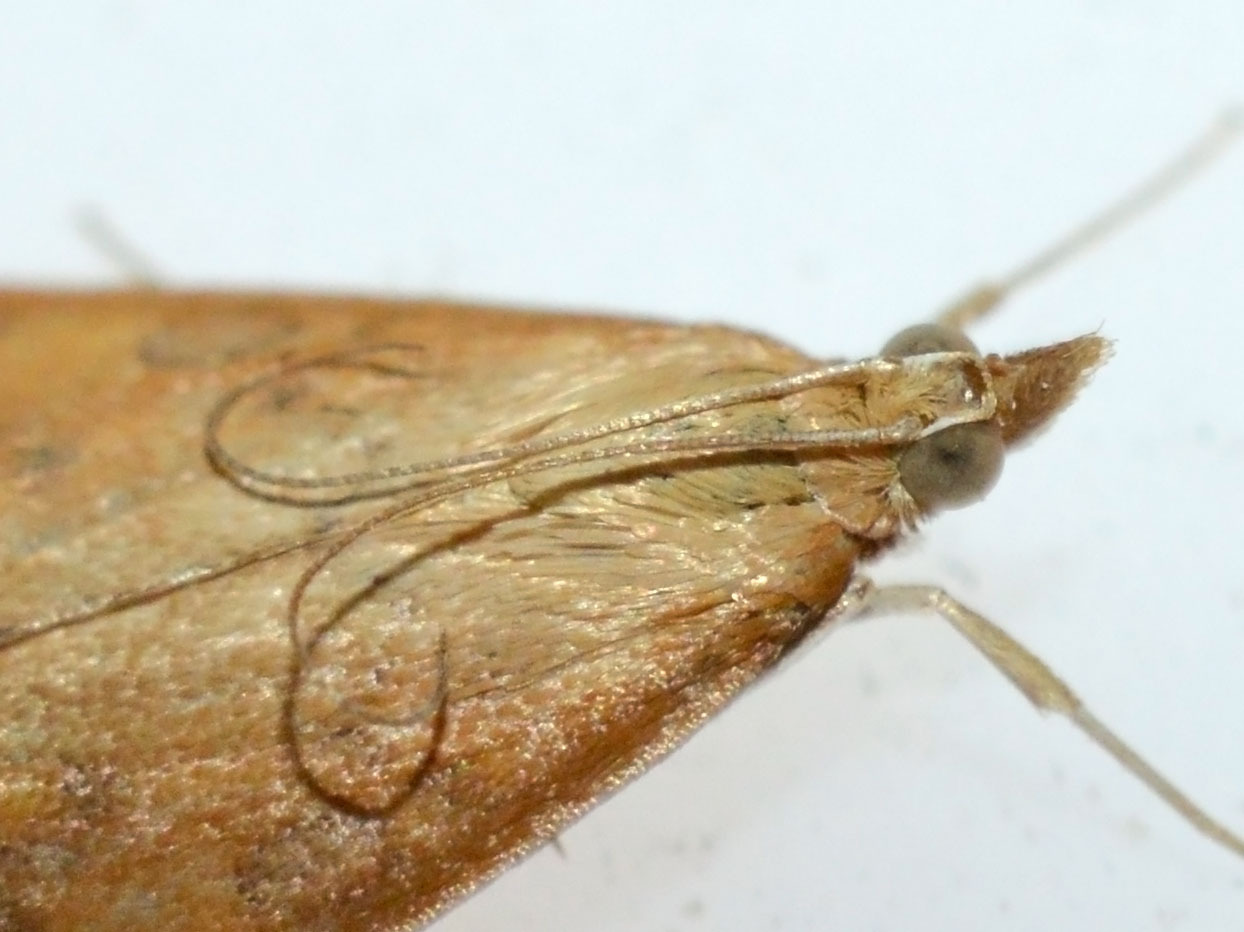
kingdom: Animalia
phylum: Arthropoda
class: Insecta
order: Lepidoptera
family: Crambidae
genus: Udea
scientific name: Udea ferrugalis
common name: Rusty dot
